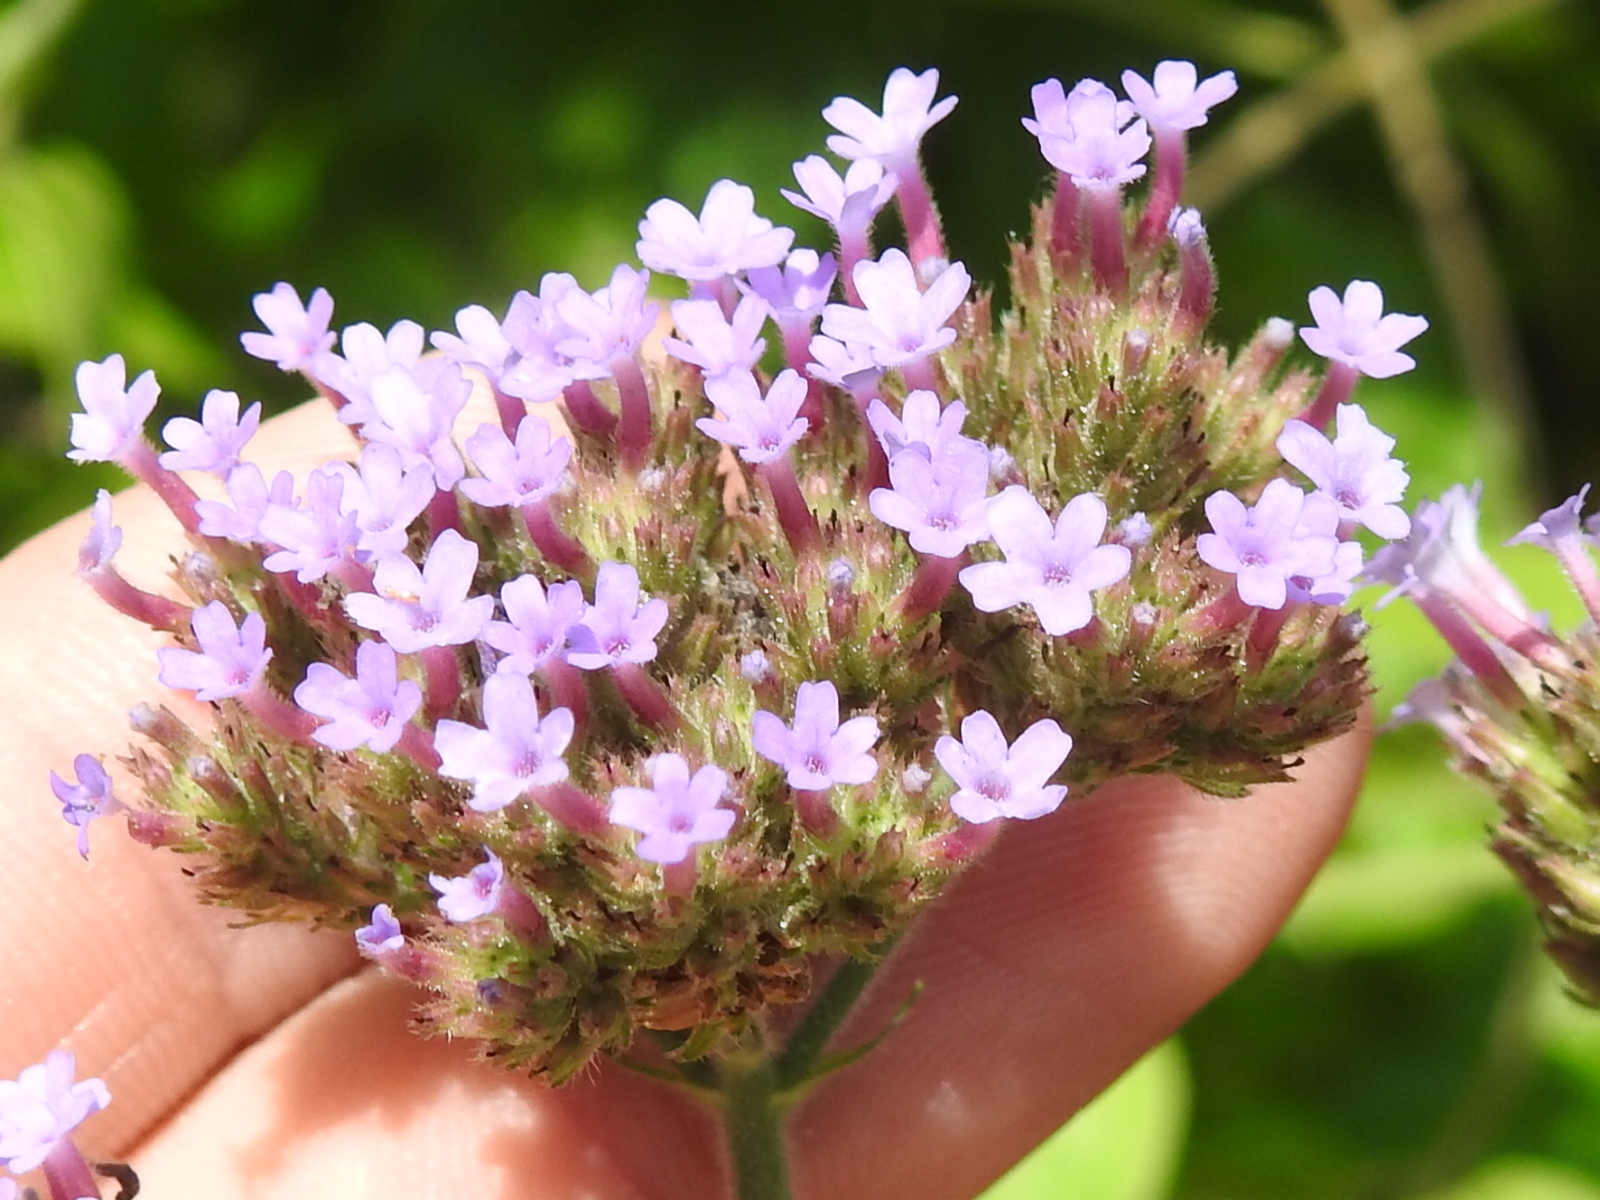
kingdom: Plantae
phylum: Tracheophyta
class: Magnoliopsida
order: Lamiales
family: Verbenaceae
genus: Verbena
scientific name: Verbena brasiliensis
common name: Brazilian vervain
